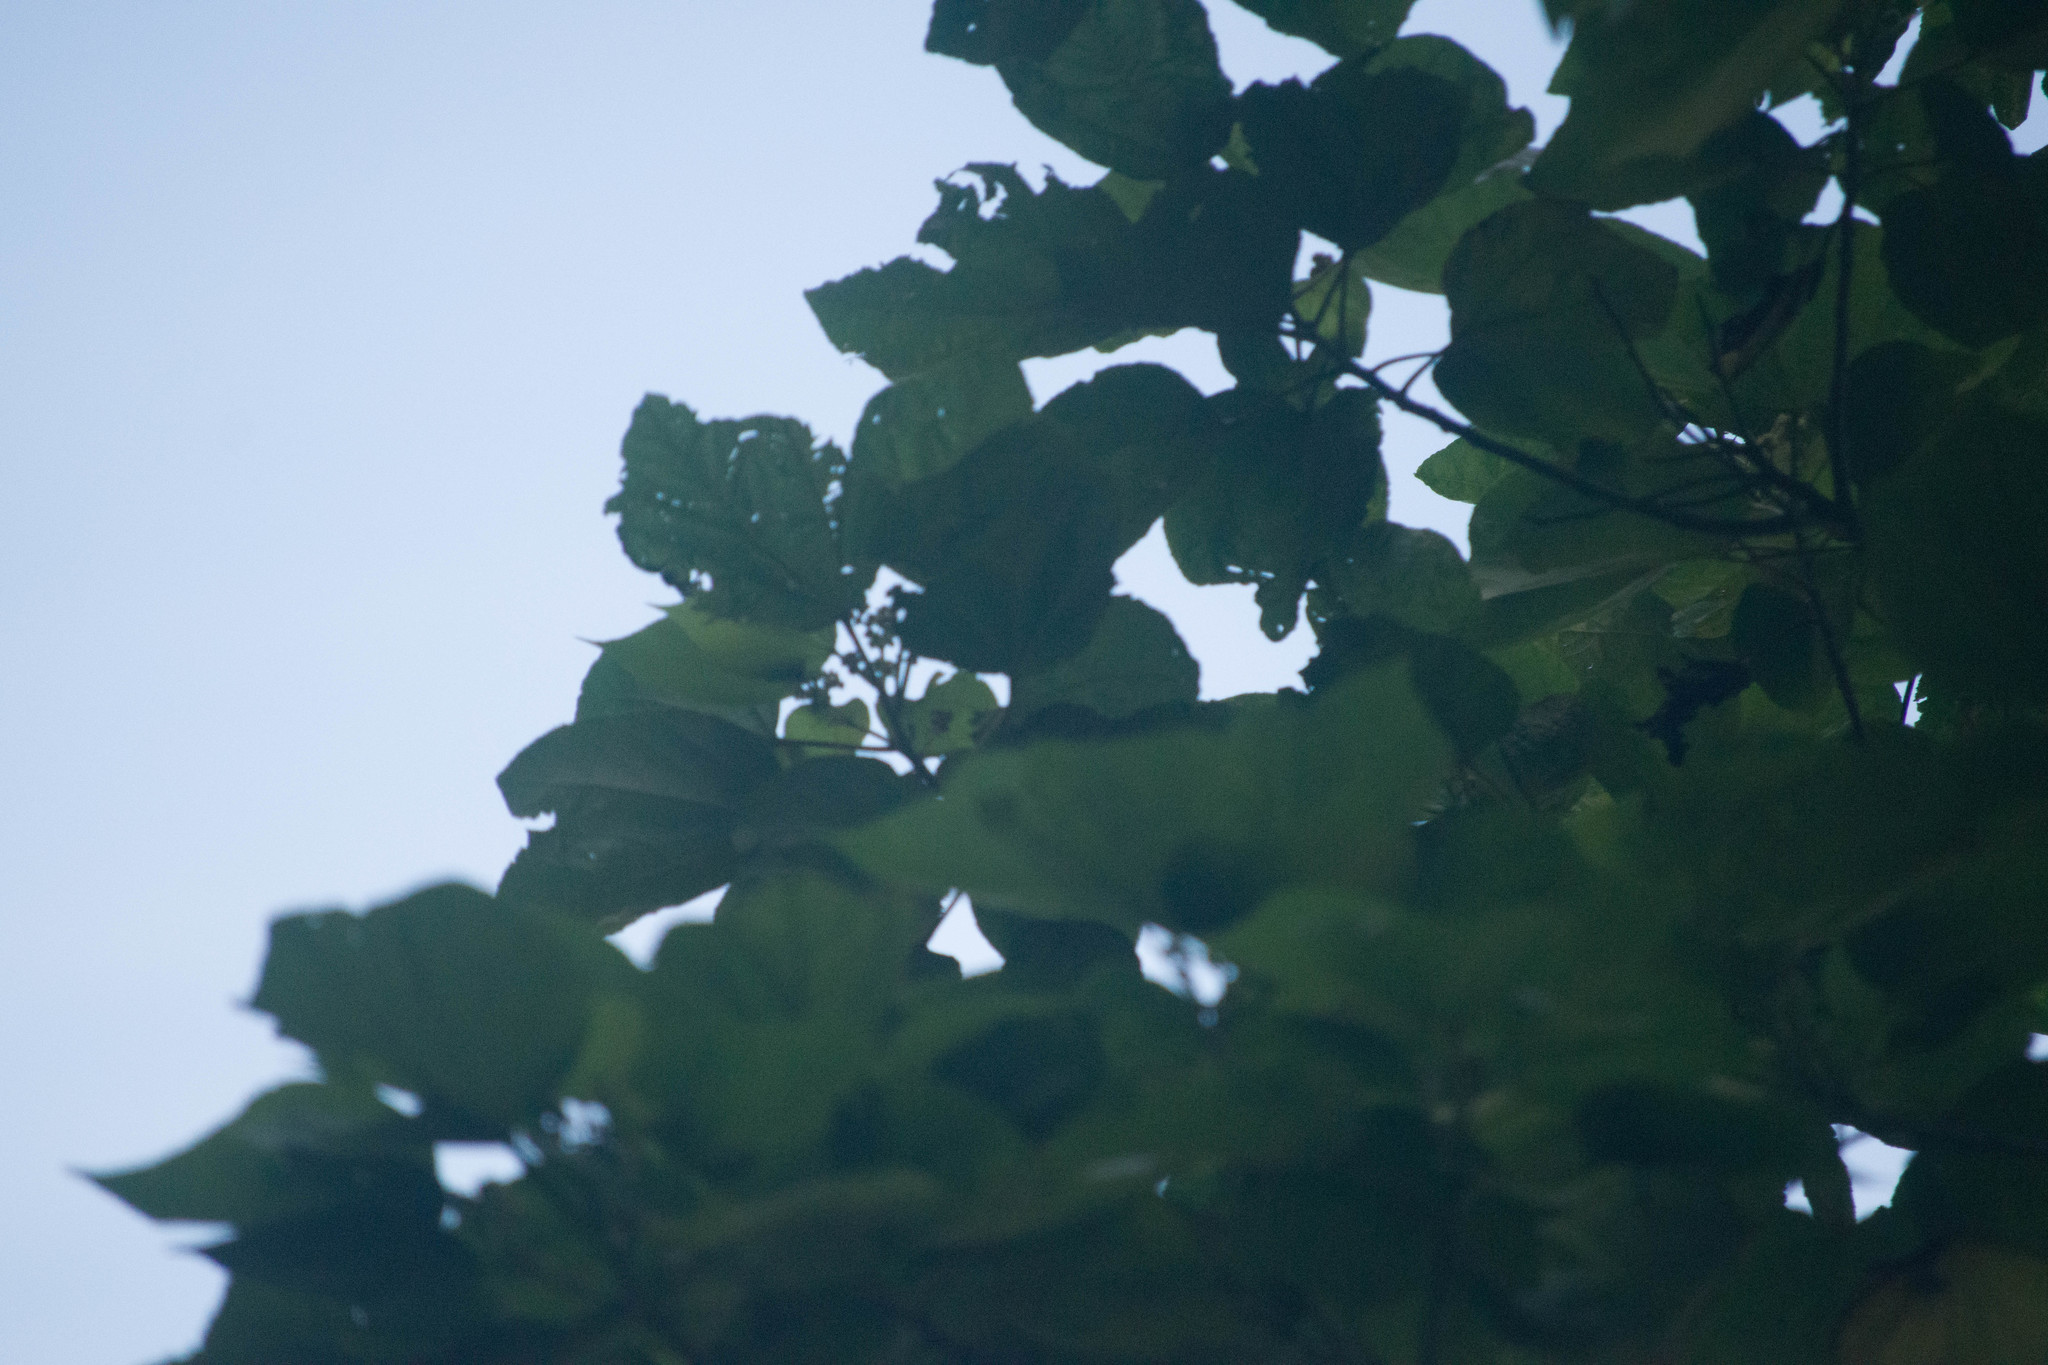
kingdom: Plantae
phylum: Tracheophyta
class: Magnoliopsida
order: Malvales
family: Malvaceae
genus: Heliocarpus
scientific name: Heliocarpus americanus
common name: White moho
